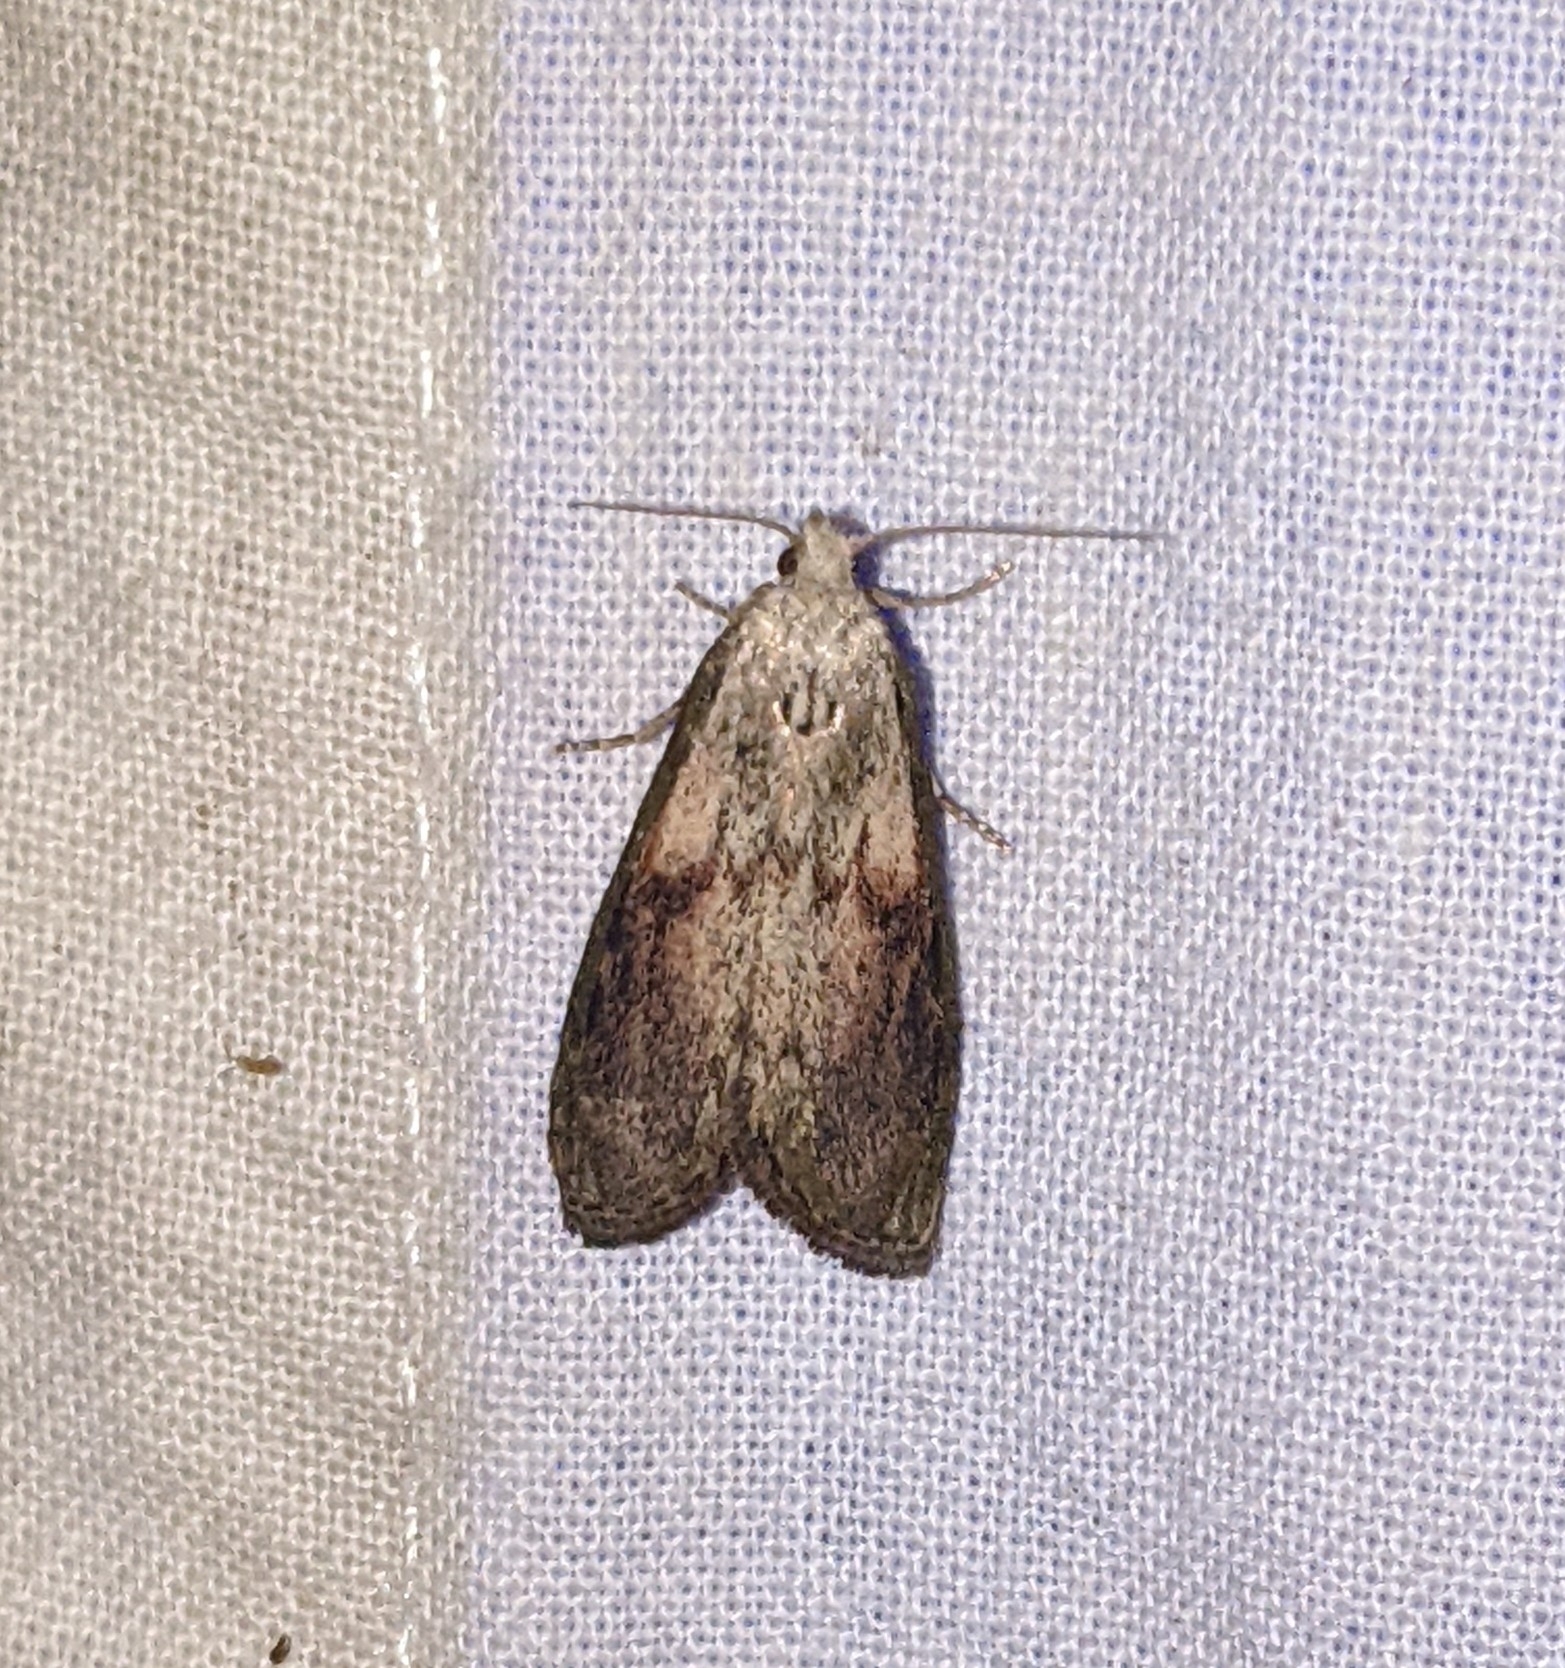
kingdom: Animalia
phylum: Arthropoda
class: Insecta
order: Lepidoptera
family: Pyralidae
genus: Aphomia
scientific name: Aphomia sociella
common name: Bee moth
